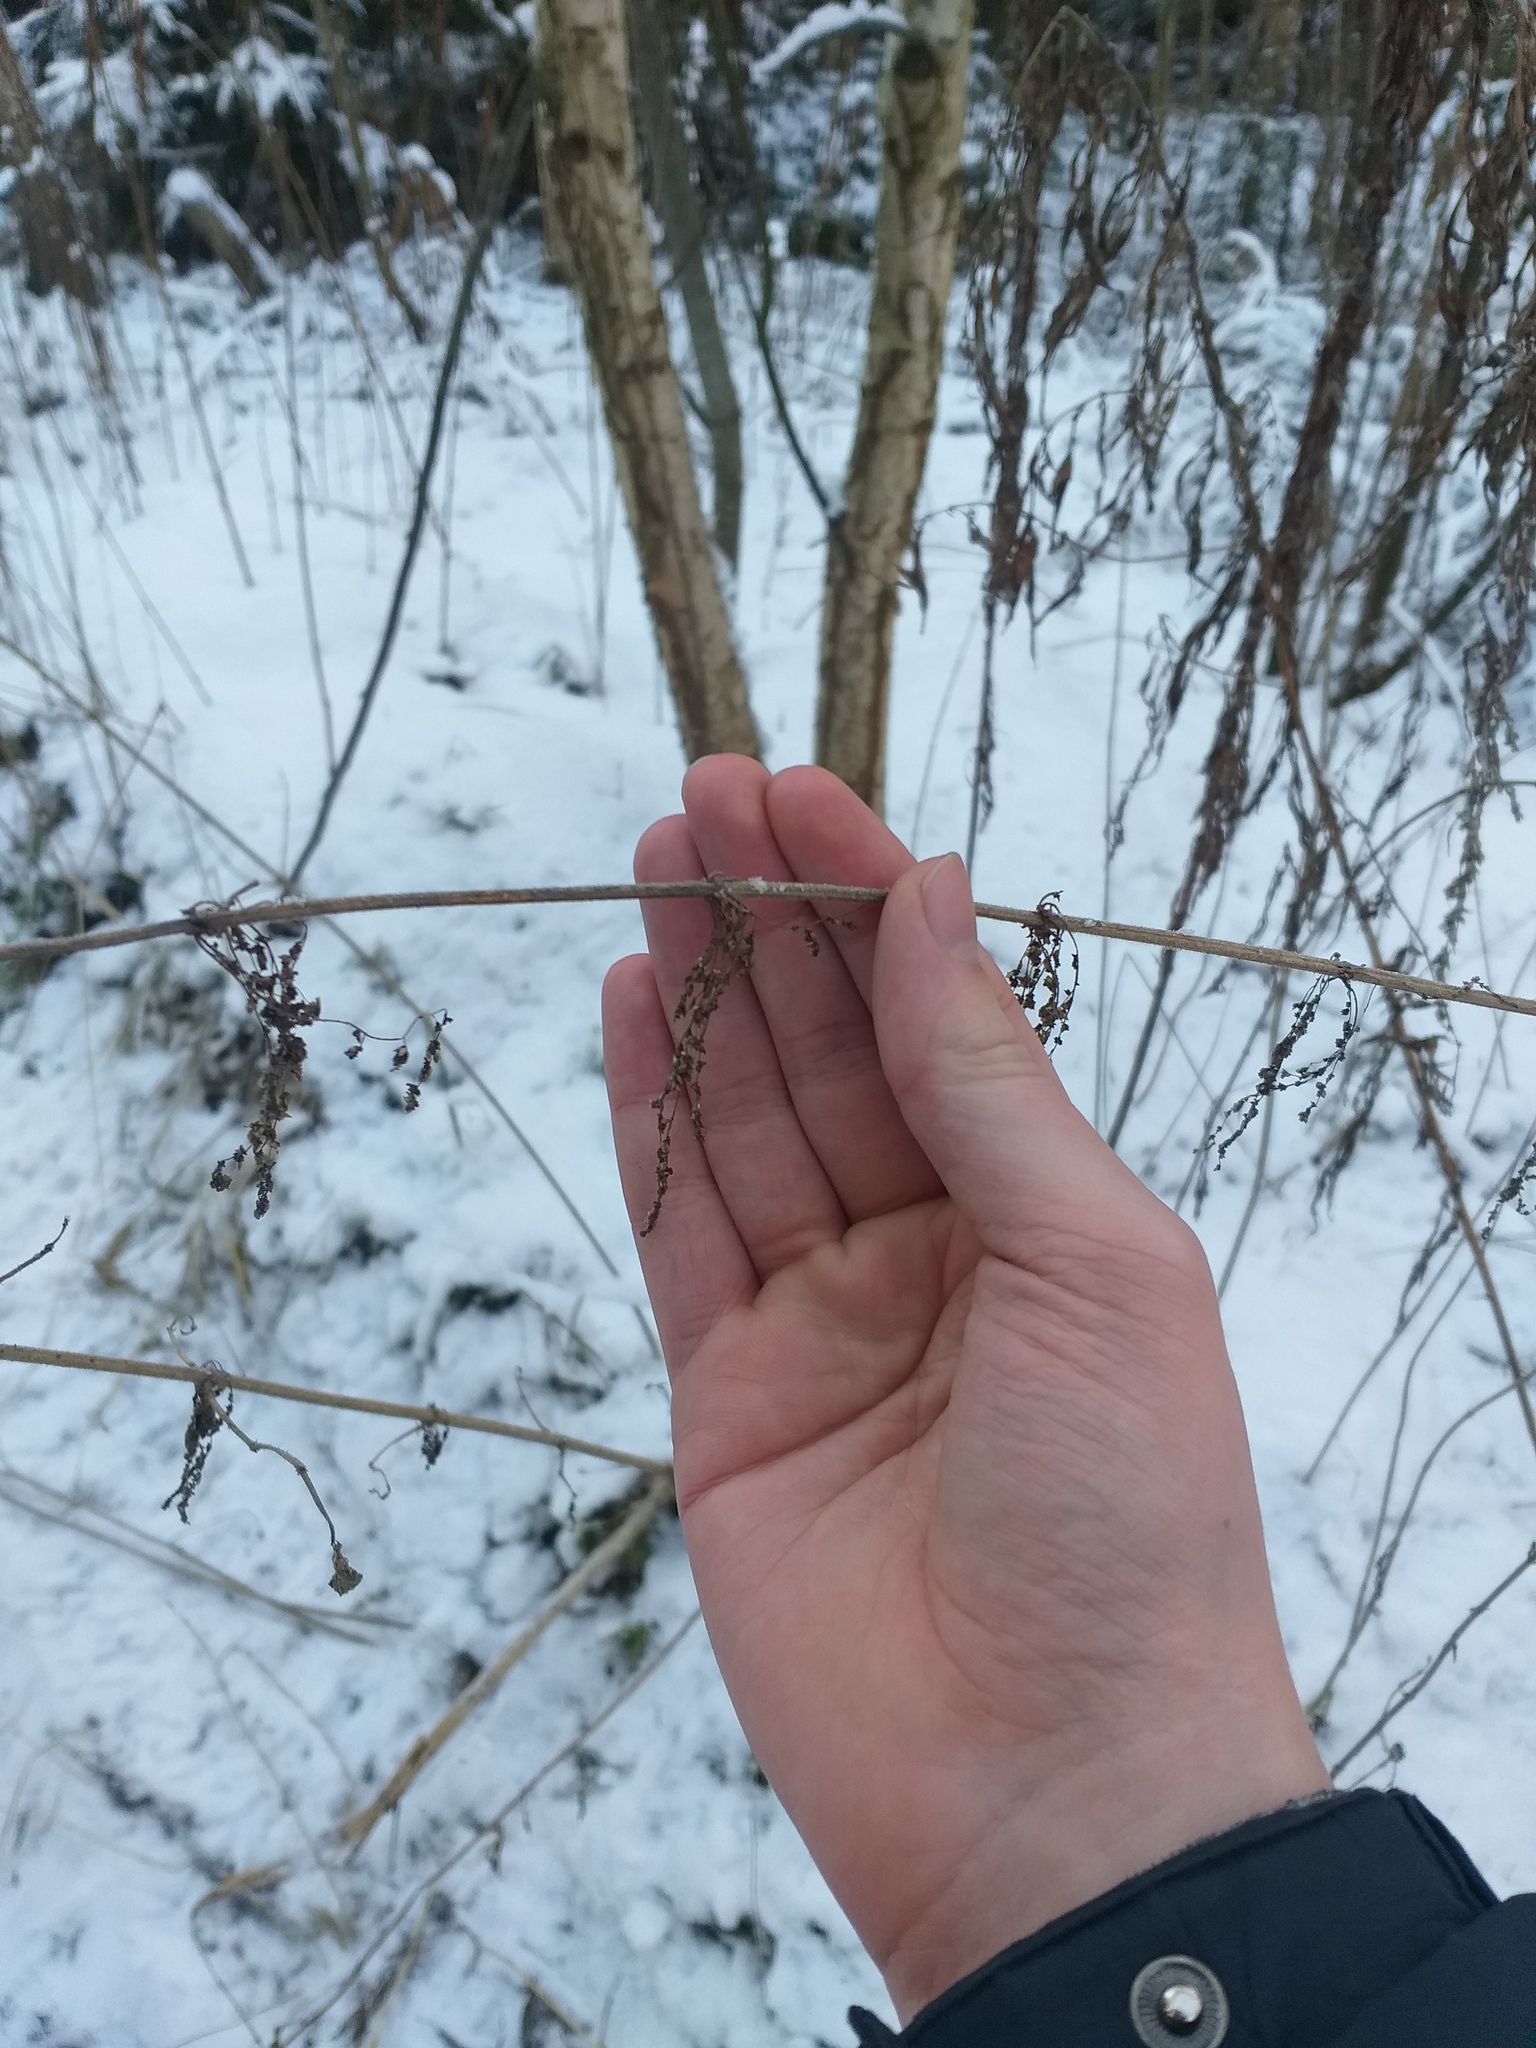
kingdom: Plantae
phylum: Tracheophyta
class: Magnoliopsida
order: Rosales
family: Urticaceae
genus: Urtica
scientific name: Urtica dioica
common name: Common nettle
